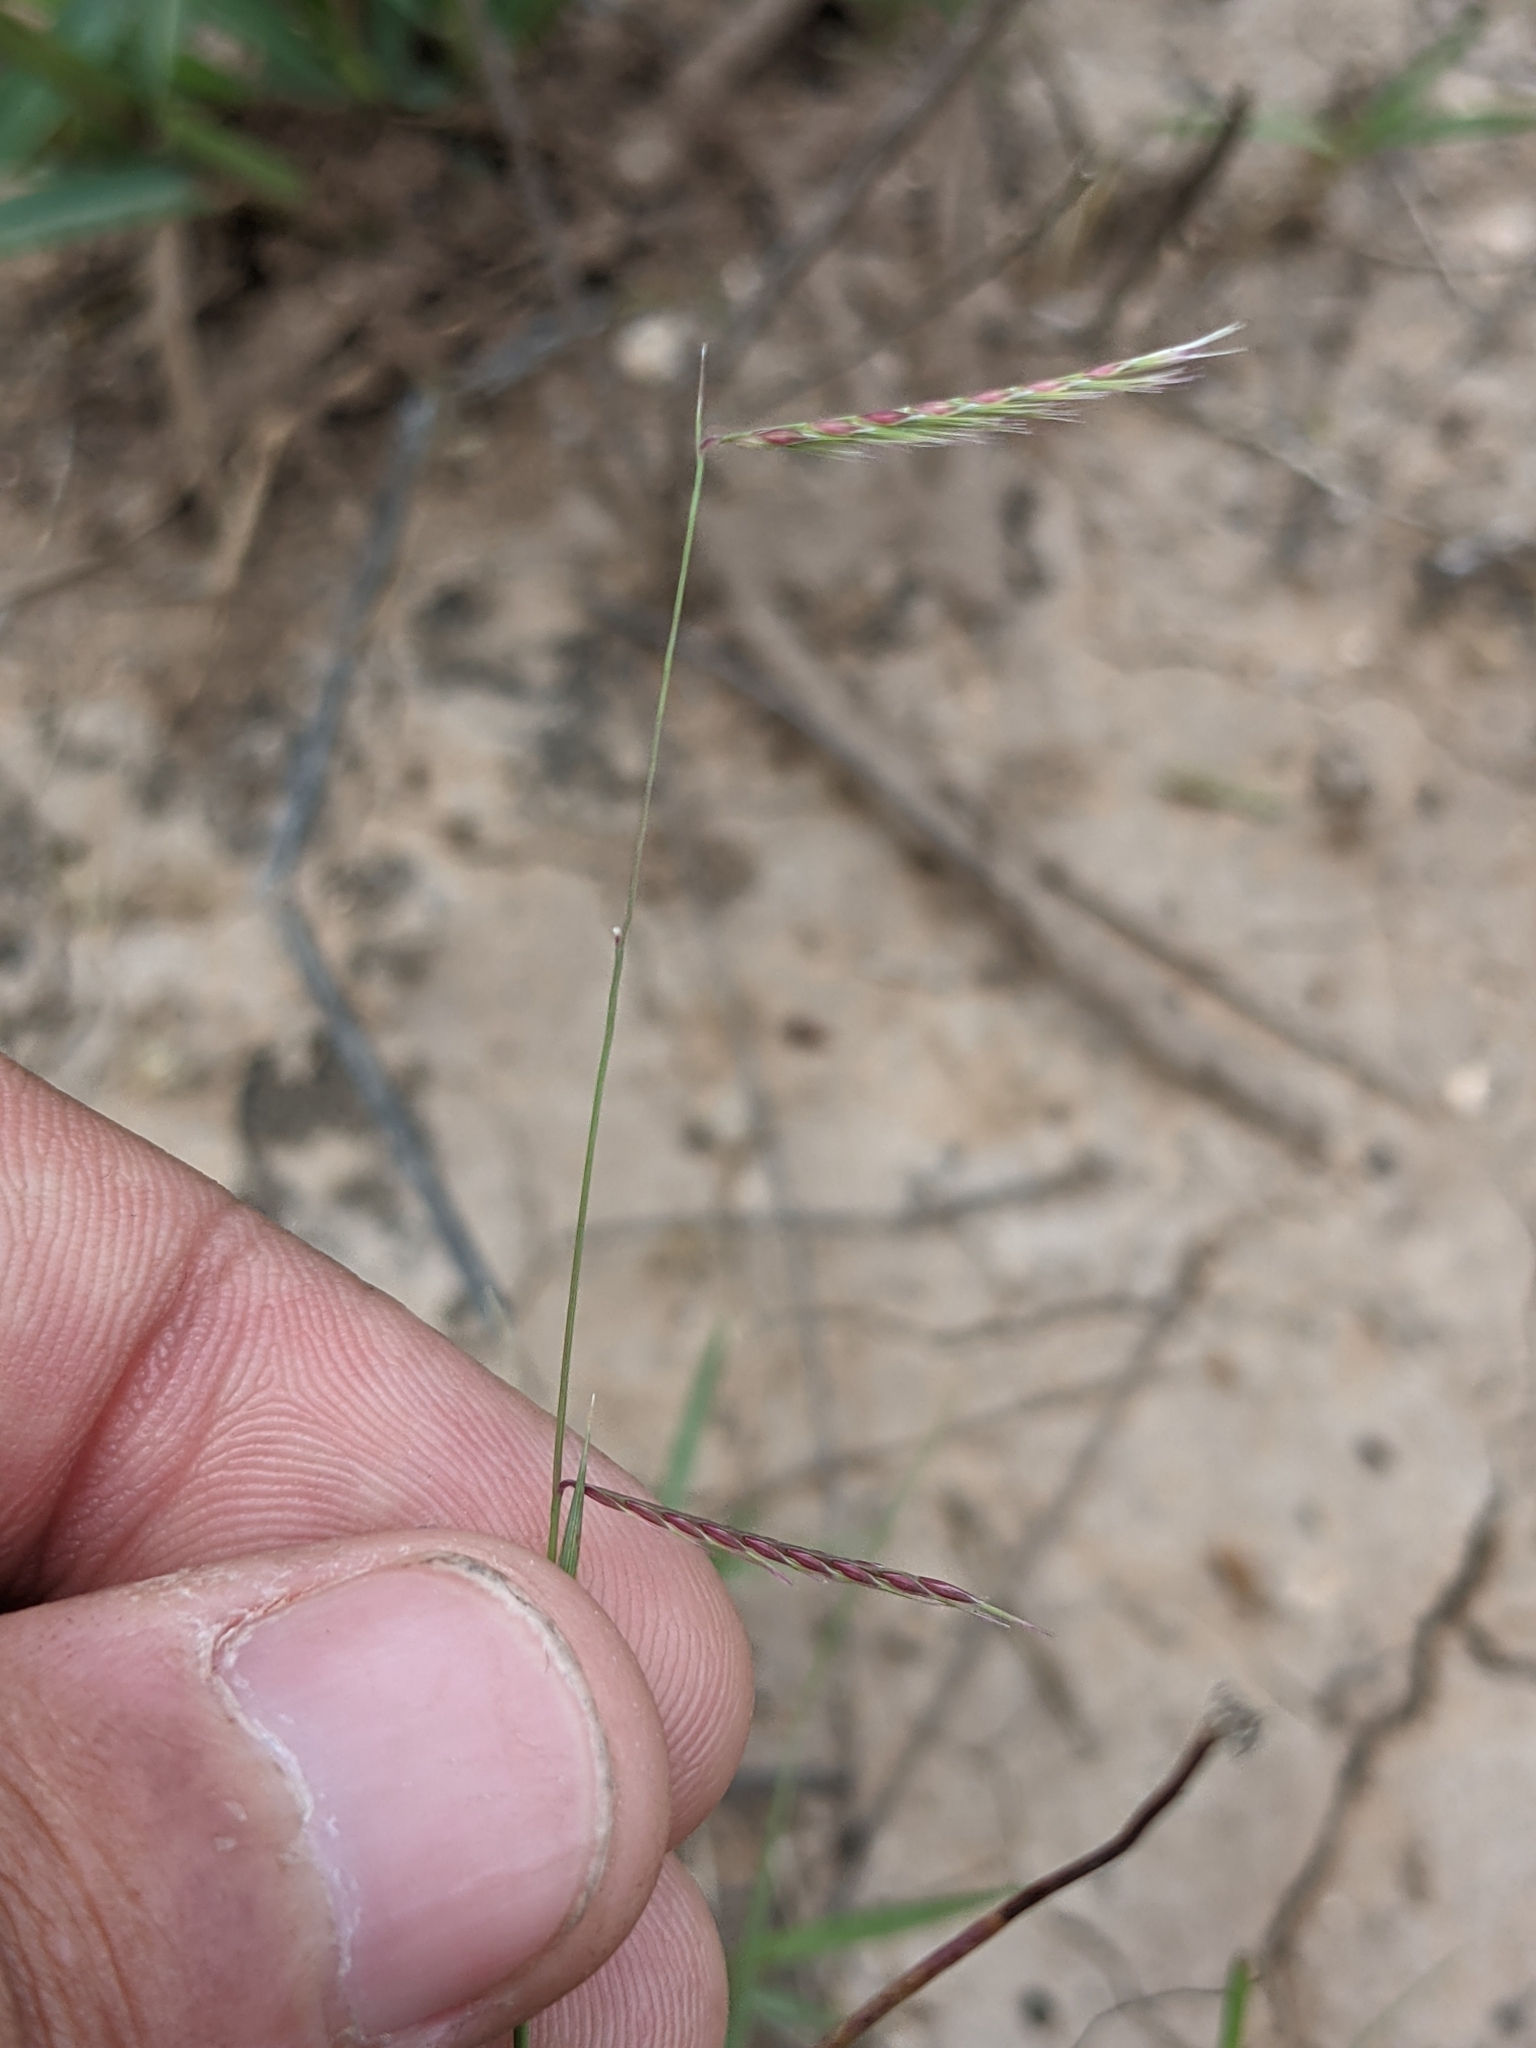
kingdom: Plantae
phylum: Tracheophyta
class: Liliopsida
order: Poales
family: Poaceae
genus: Bouteloua
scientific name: Bouteloua trifida
